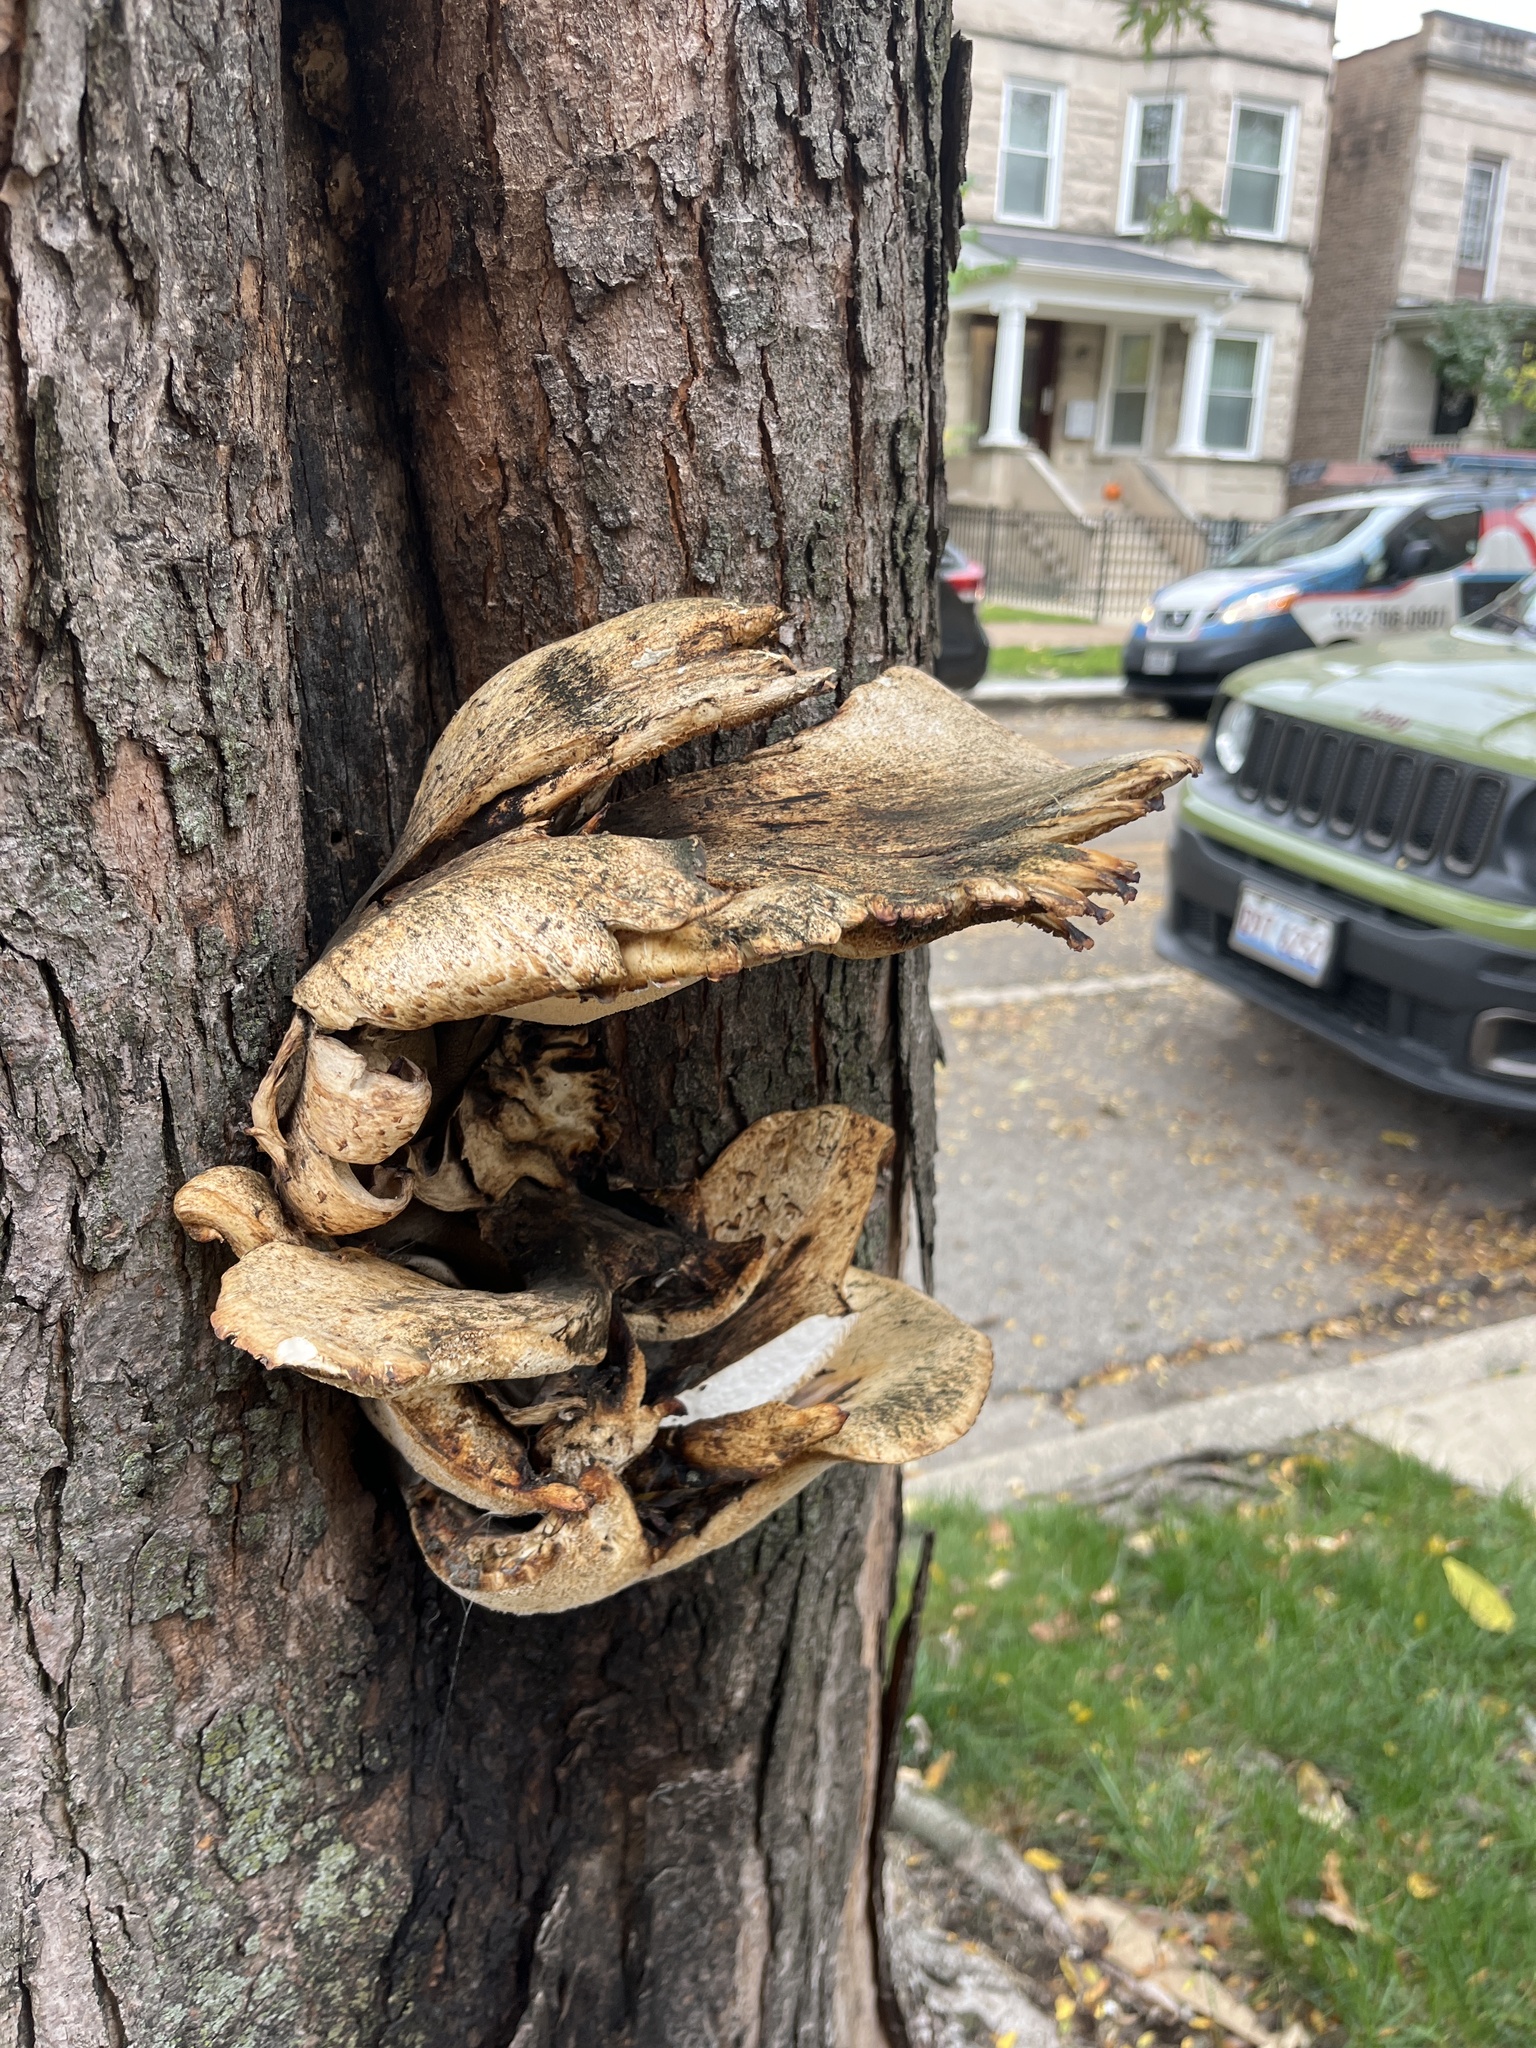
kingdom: Fungi
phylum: Basidiomycota
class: Agaricomycetes
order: Polyporales
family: Polyporaceae
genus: Cerioporus
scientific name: Cerioporus squamosus
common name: Dryad's saddle
